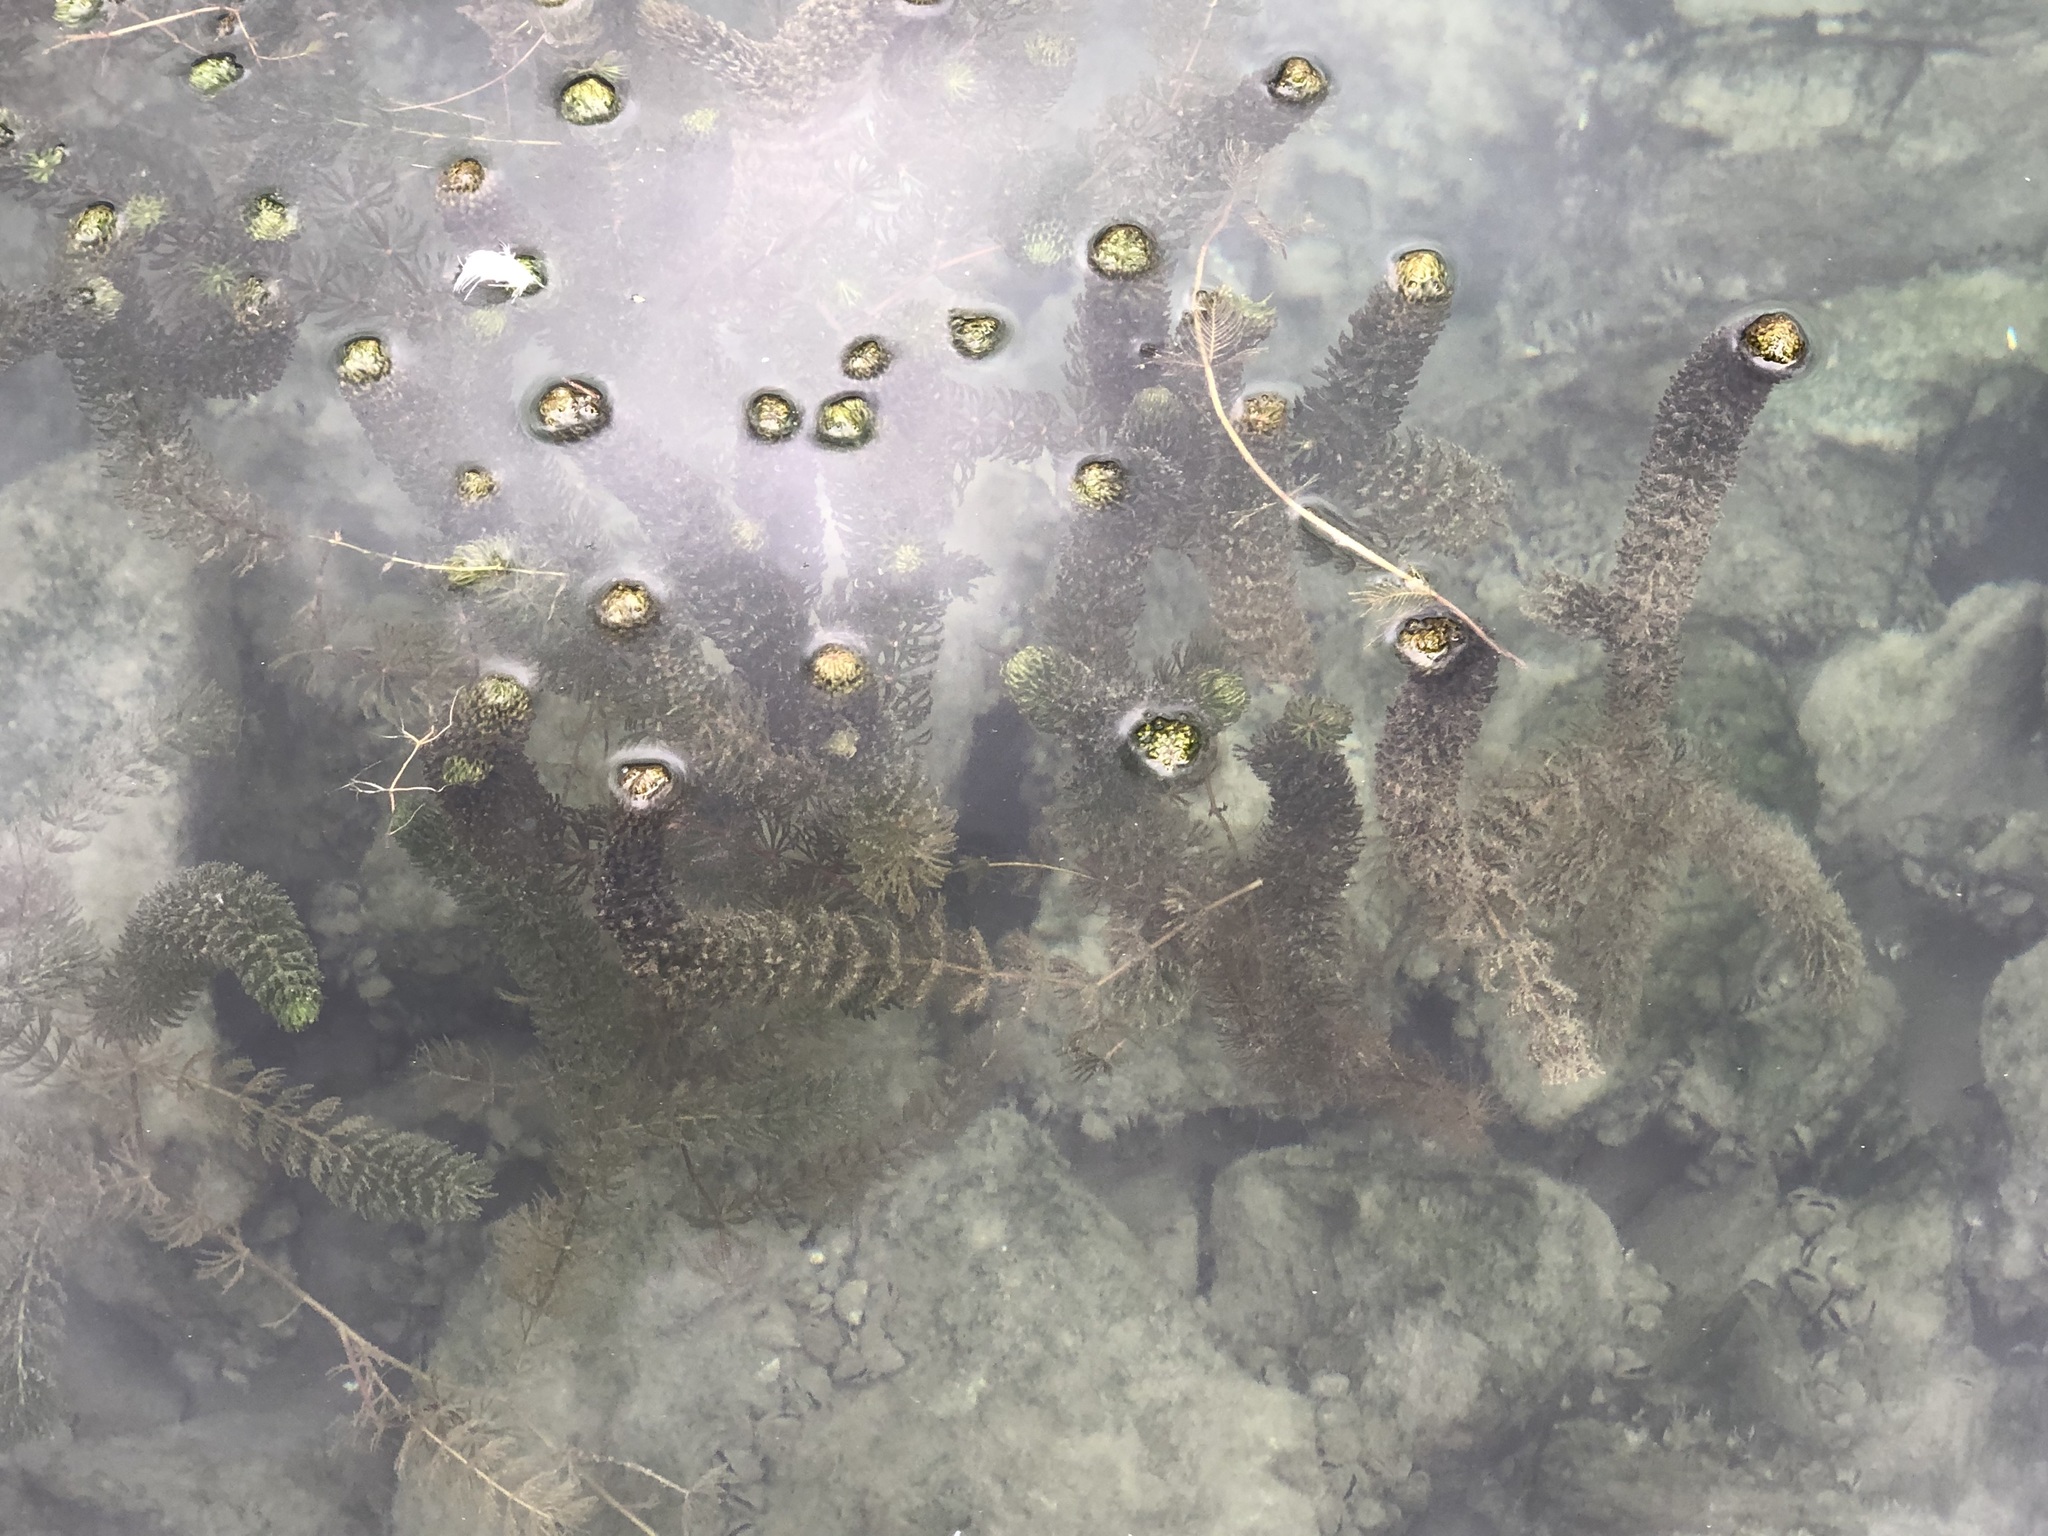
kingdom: Plantae
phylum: Tracheophyta
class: Magnoliopsida
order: Ceratophyllales
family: Ceratophyllaceae
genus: Ceratophyllum
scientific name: Ceratophyllum demersum
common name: Rigid hornwort
